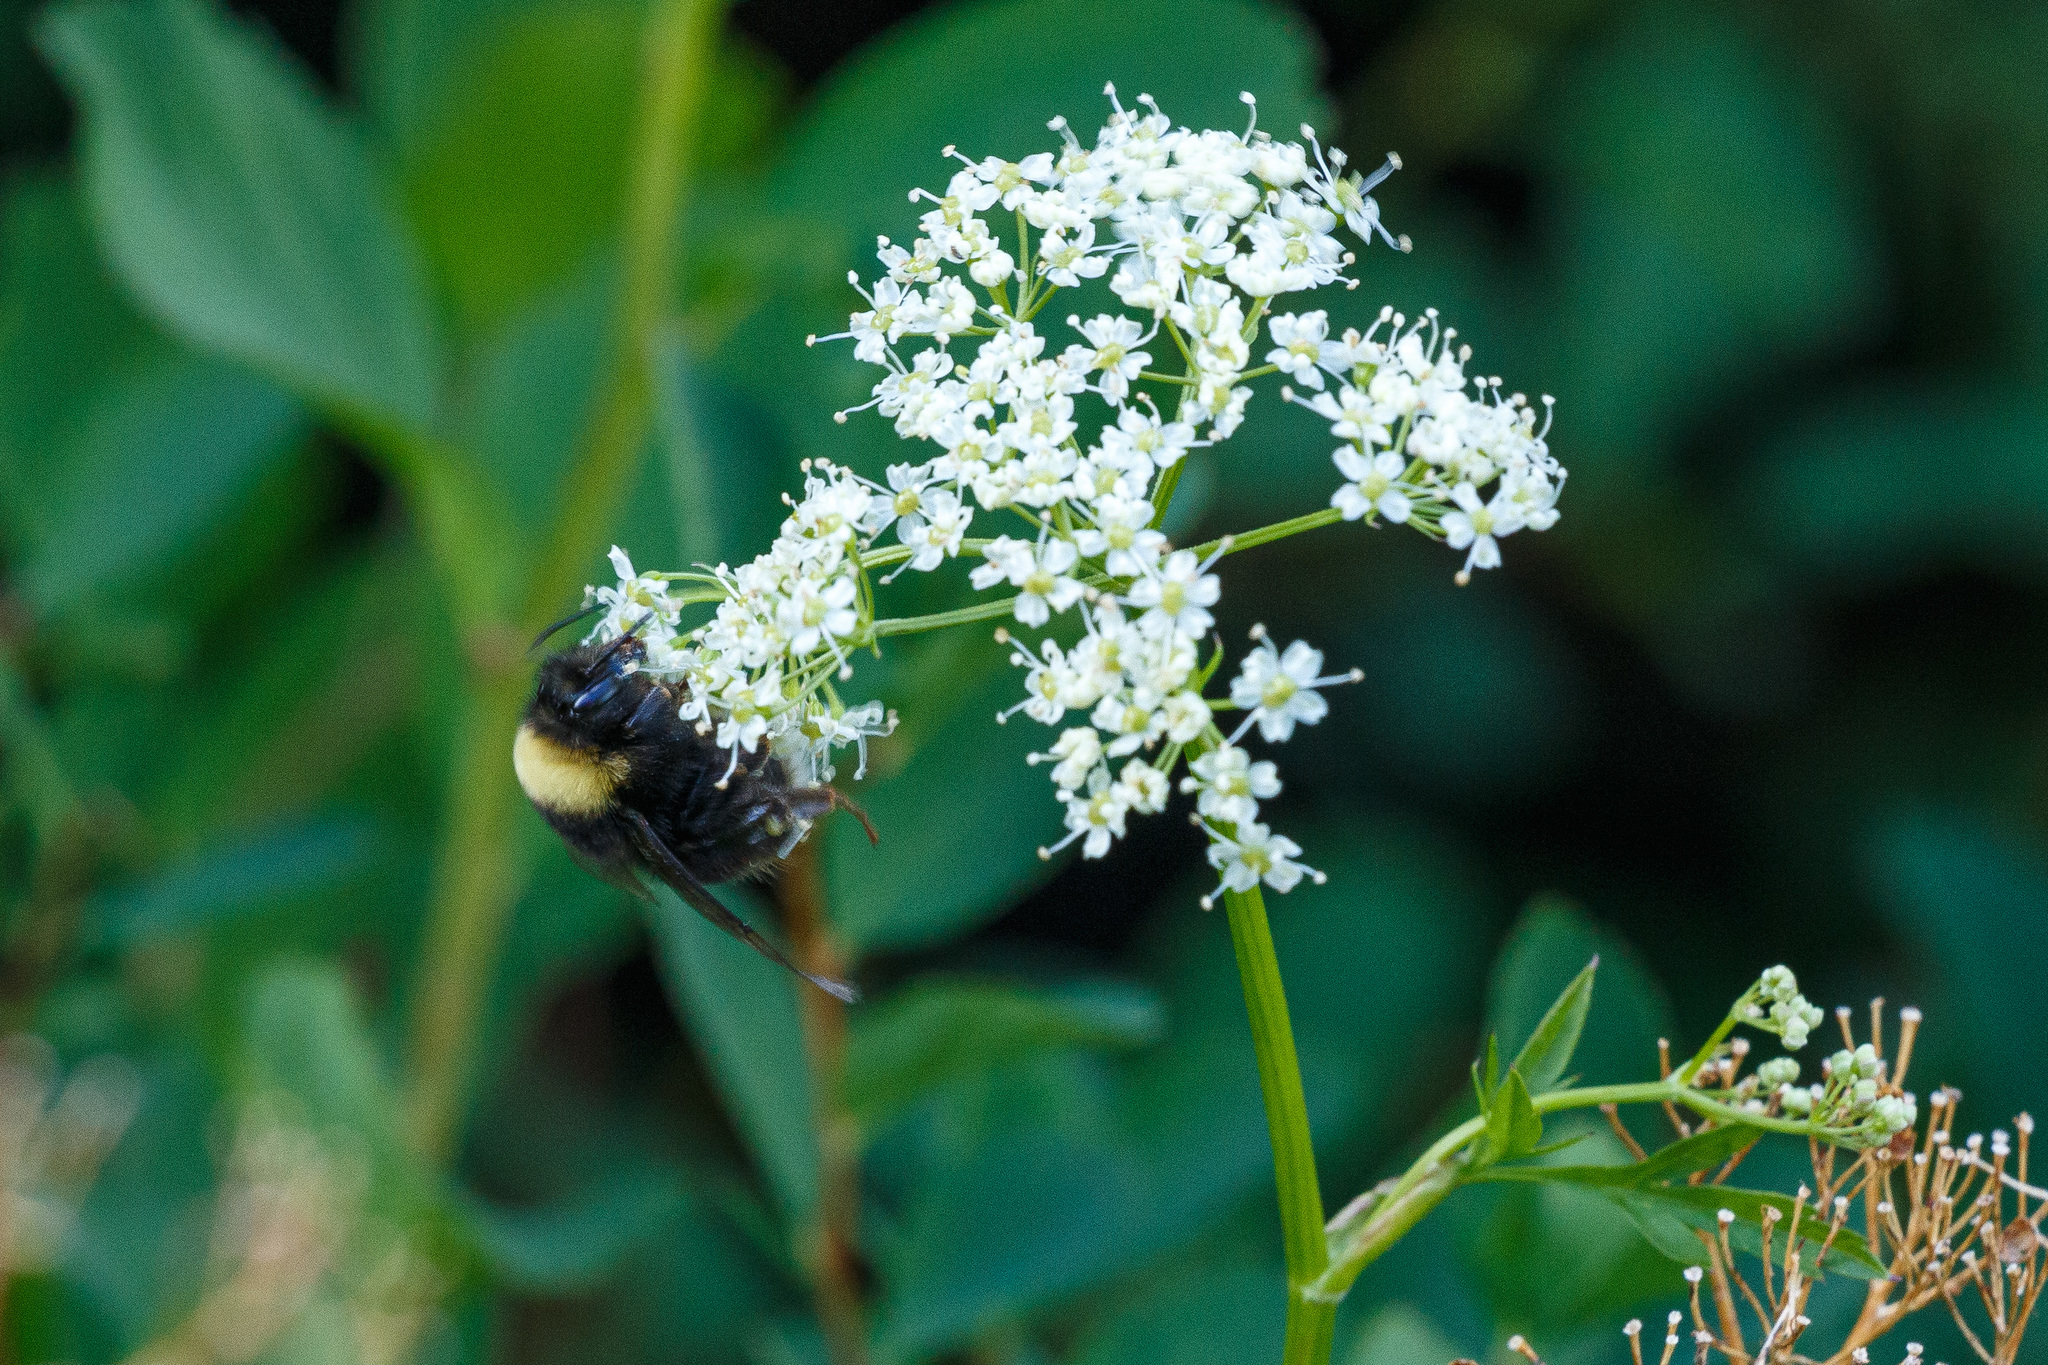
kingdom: Animalia
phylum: Arthropoda
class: Insecta
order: Hymenoptera
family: Apidae
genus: Bombus
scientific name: Bombus occidentalis
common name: Western bumble bee
